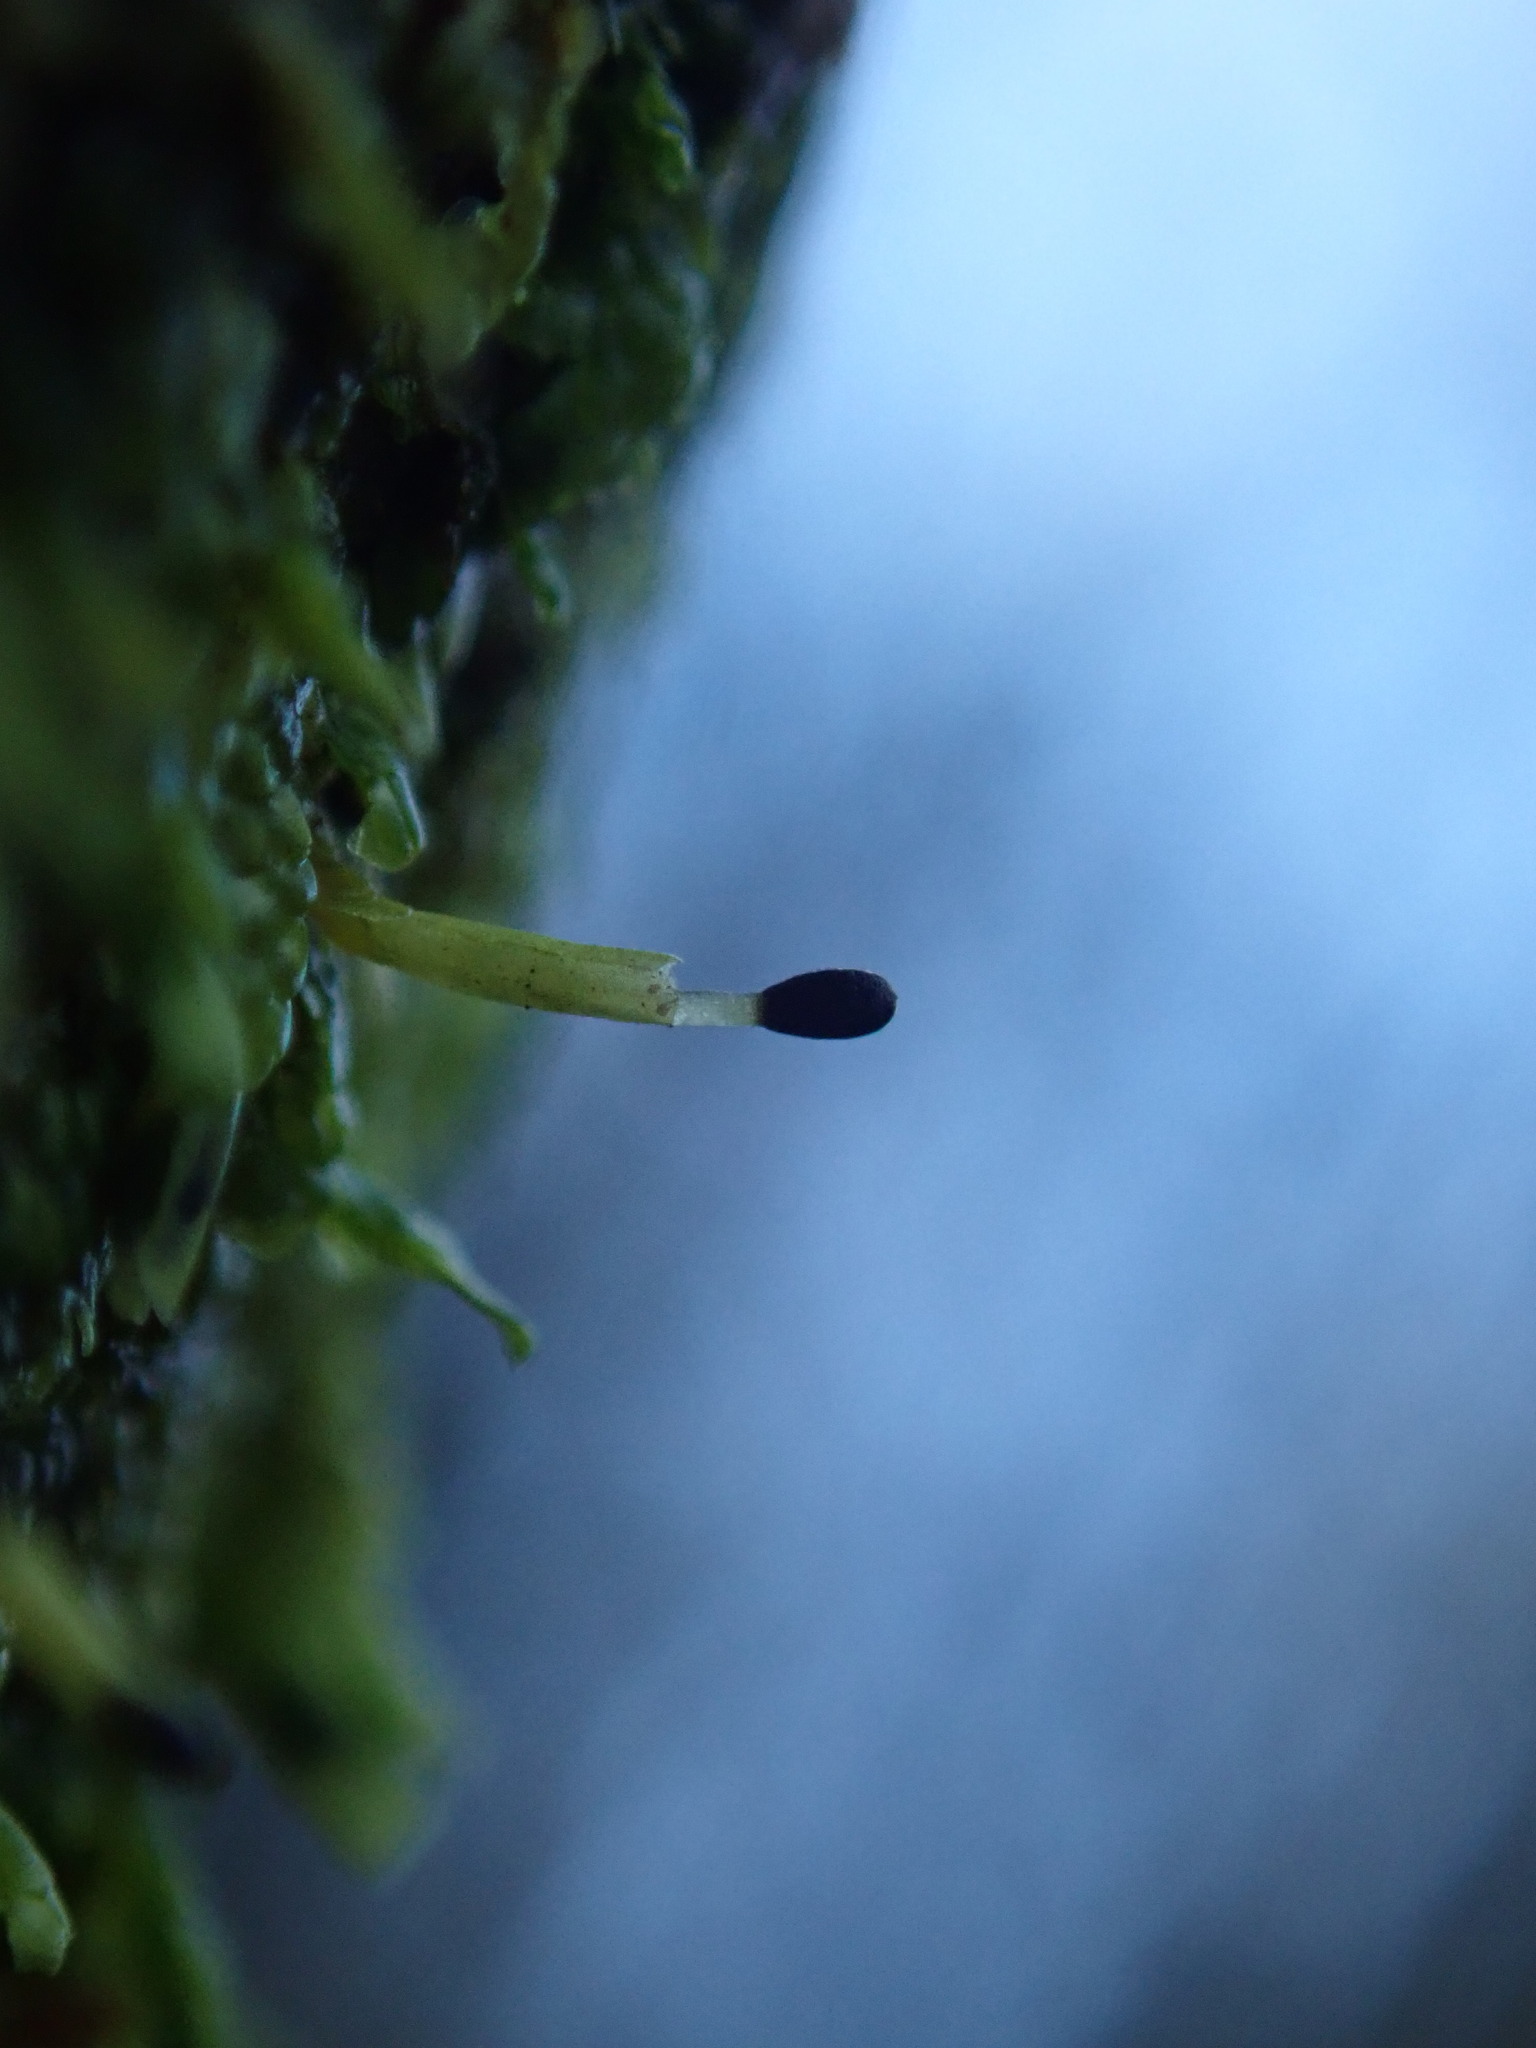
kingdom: Plantae
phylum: Marchantiophyta
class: Jungermanniopsida
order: Porellales
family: Radulaceae
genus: Radula
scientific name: Radula complanata
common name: Flat-leaved scalewort
